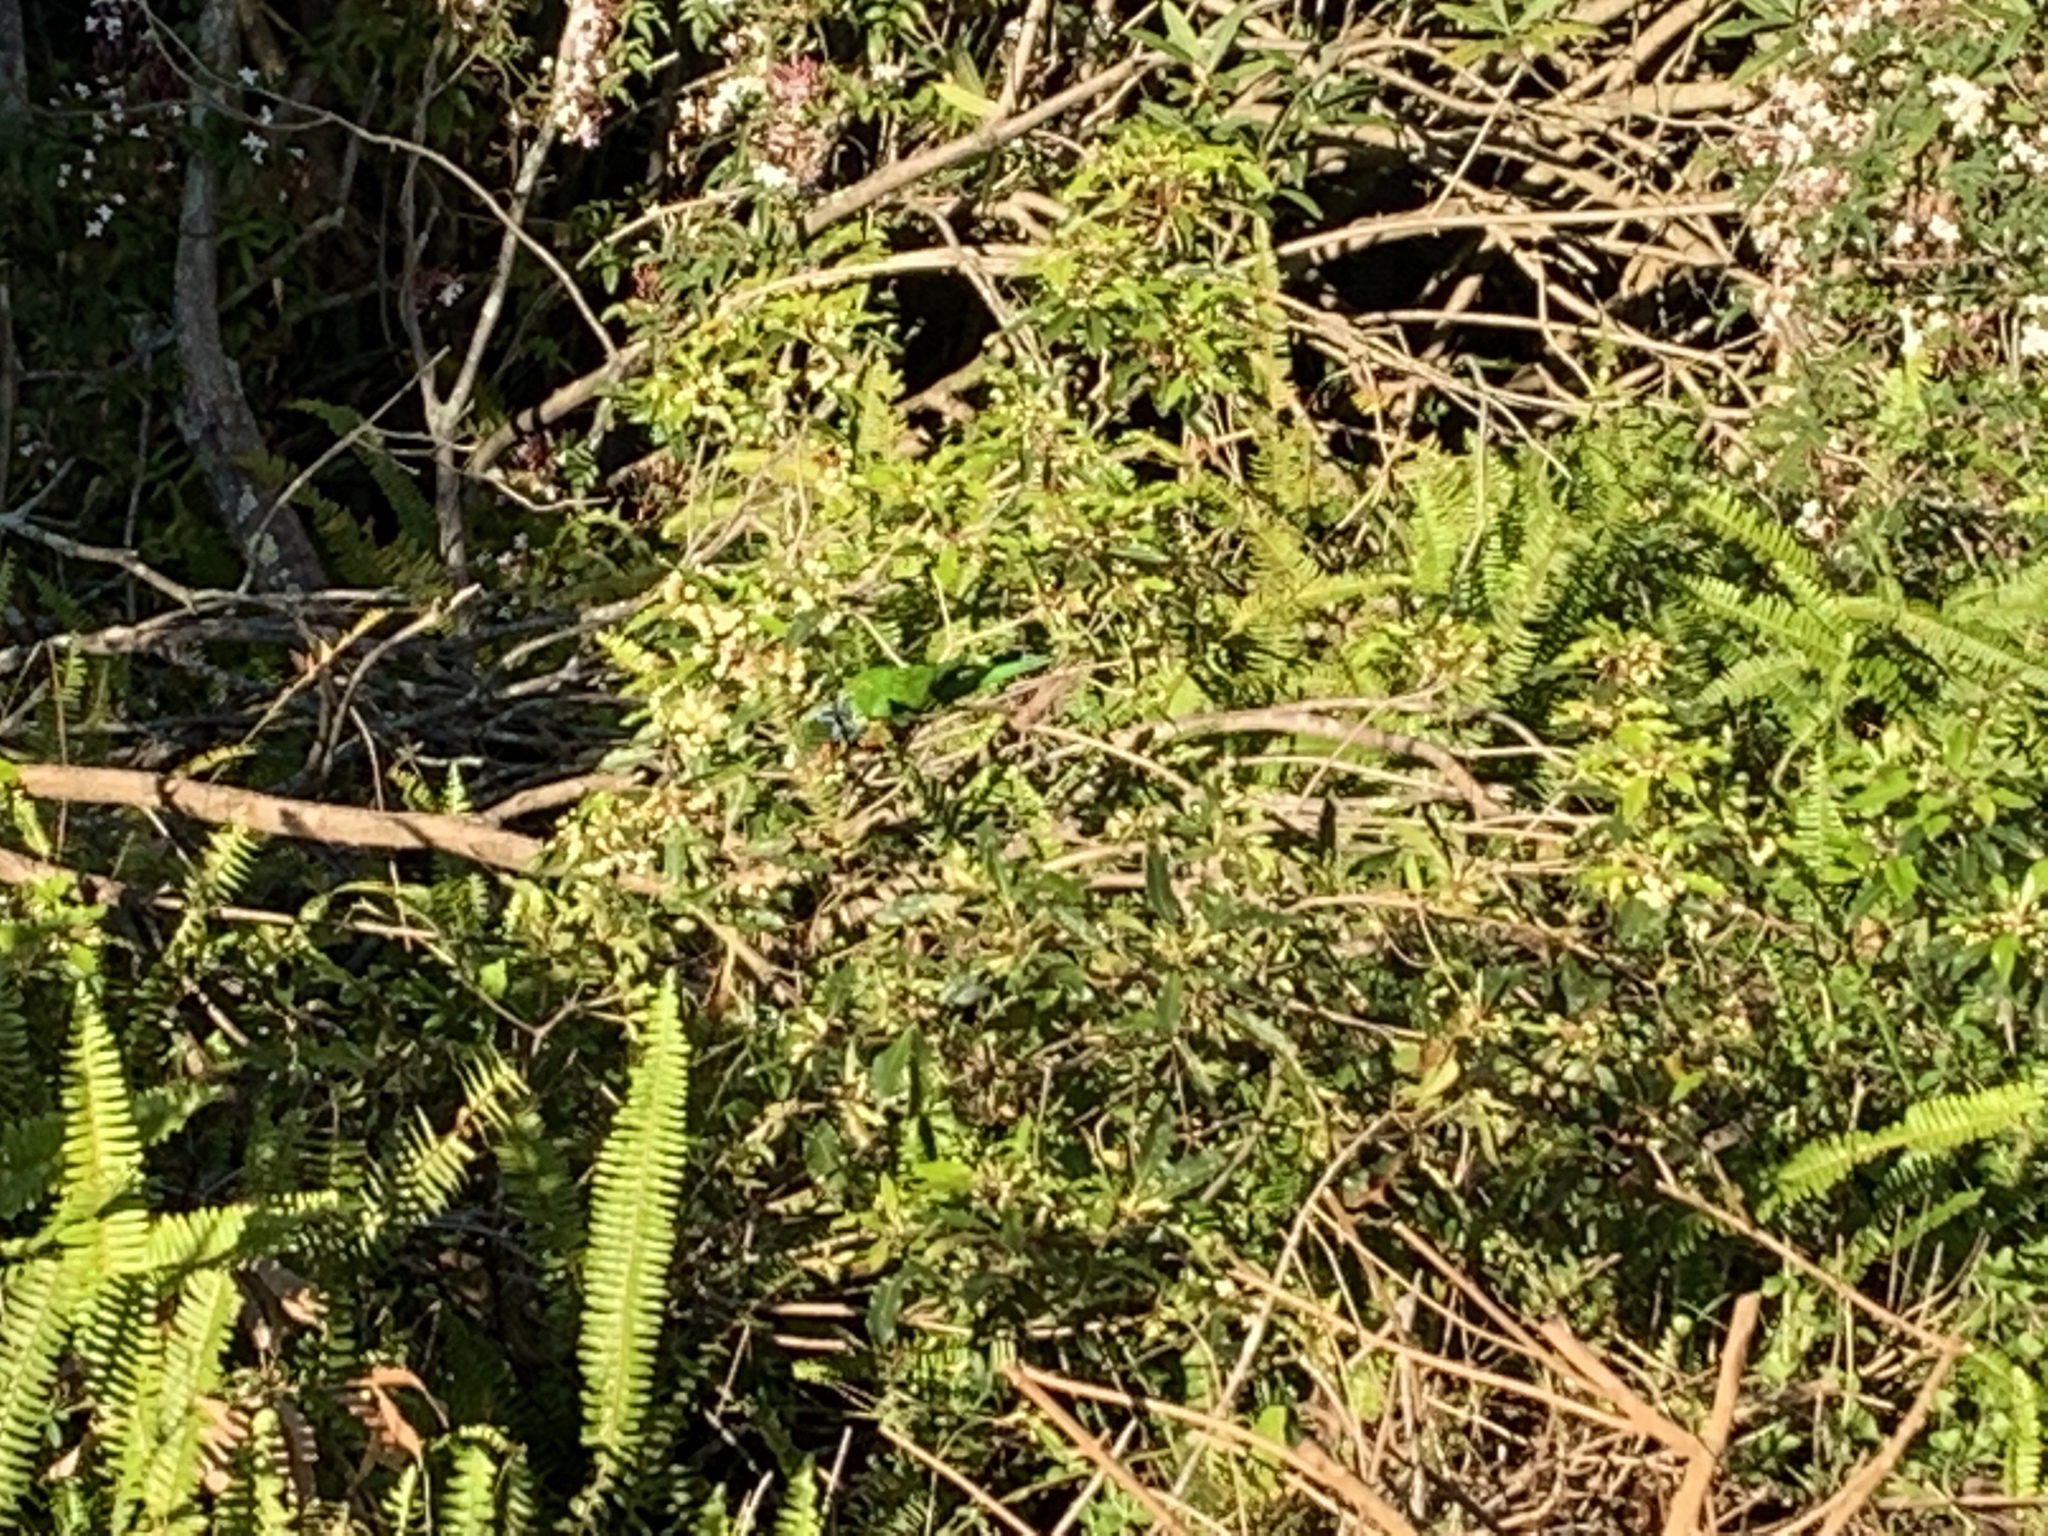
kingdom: Animalia
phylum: Chordata
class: Aves
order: Psittaciformes
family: Psittacidae
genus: Trichoglossus
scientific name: Trichoglossus haematodus
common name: Coconut lorikeet
